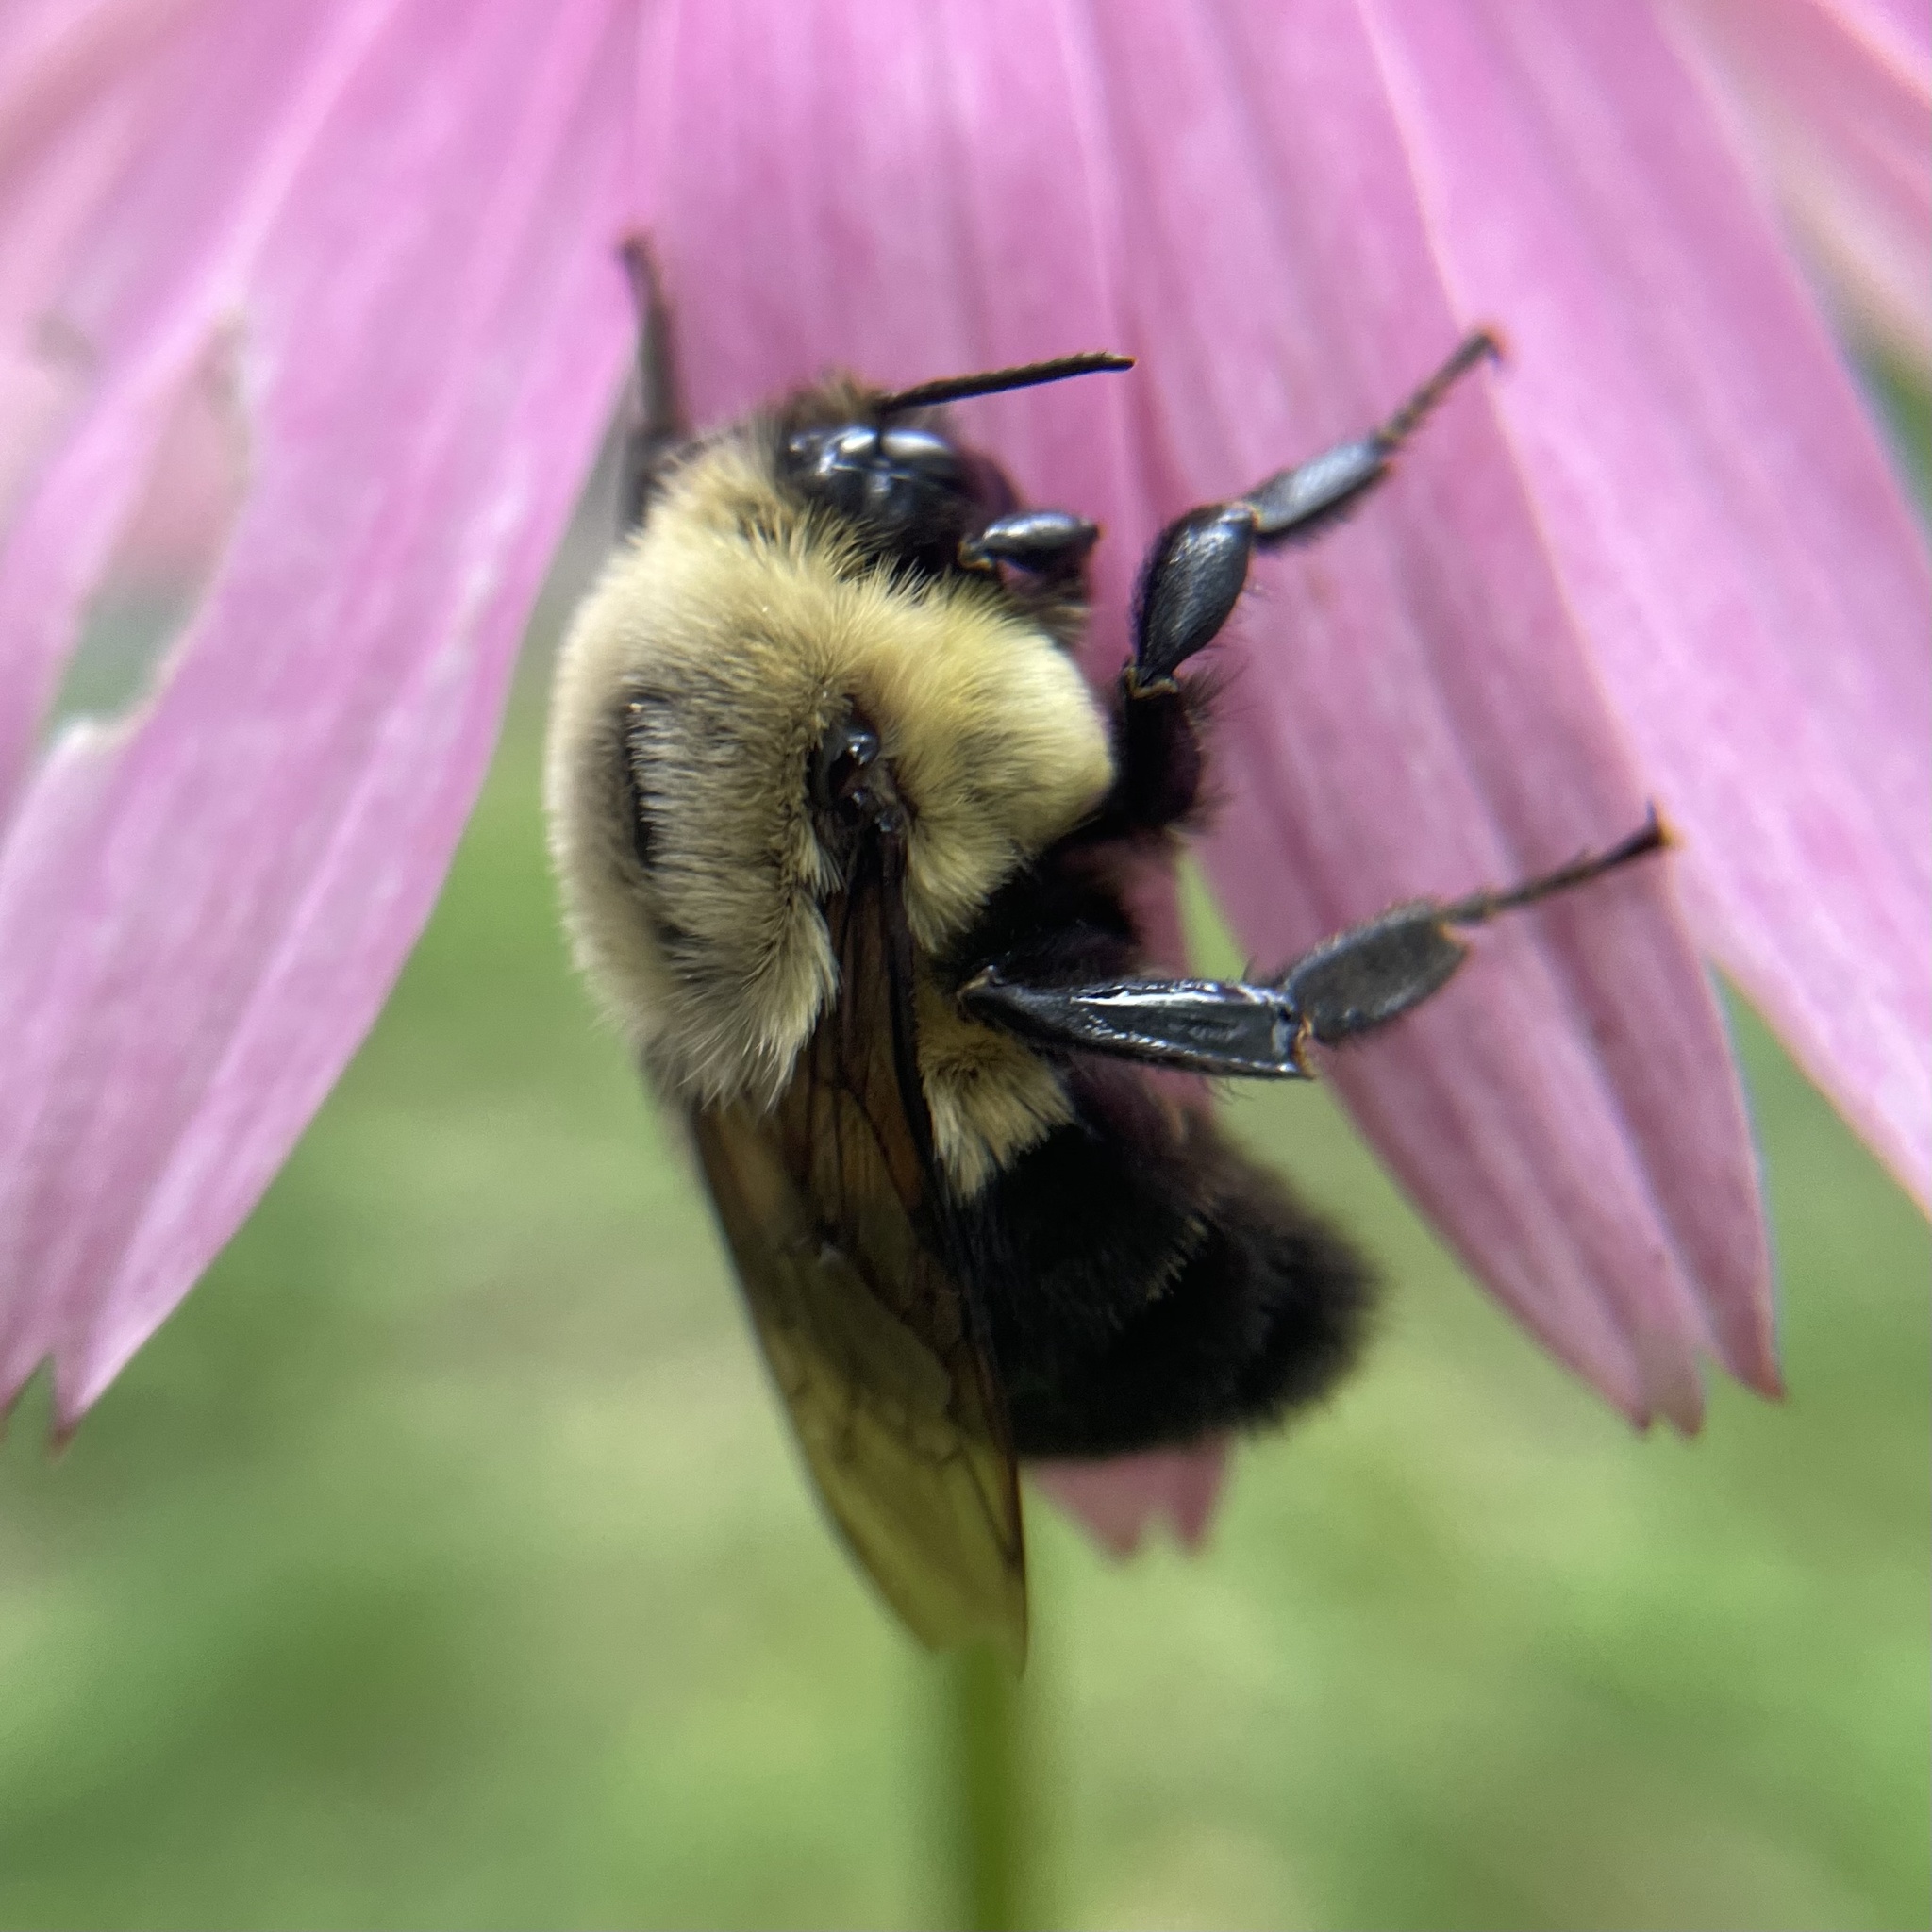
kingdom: Animalia
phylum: Arthropoda
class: Insecta
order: Hymenoptera
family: Apidae
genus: Bombus
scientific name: Bombus impatiens
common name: Common eastern bumble bee
